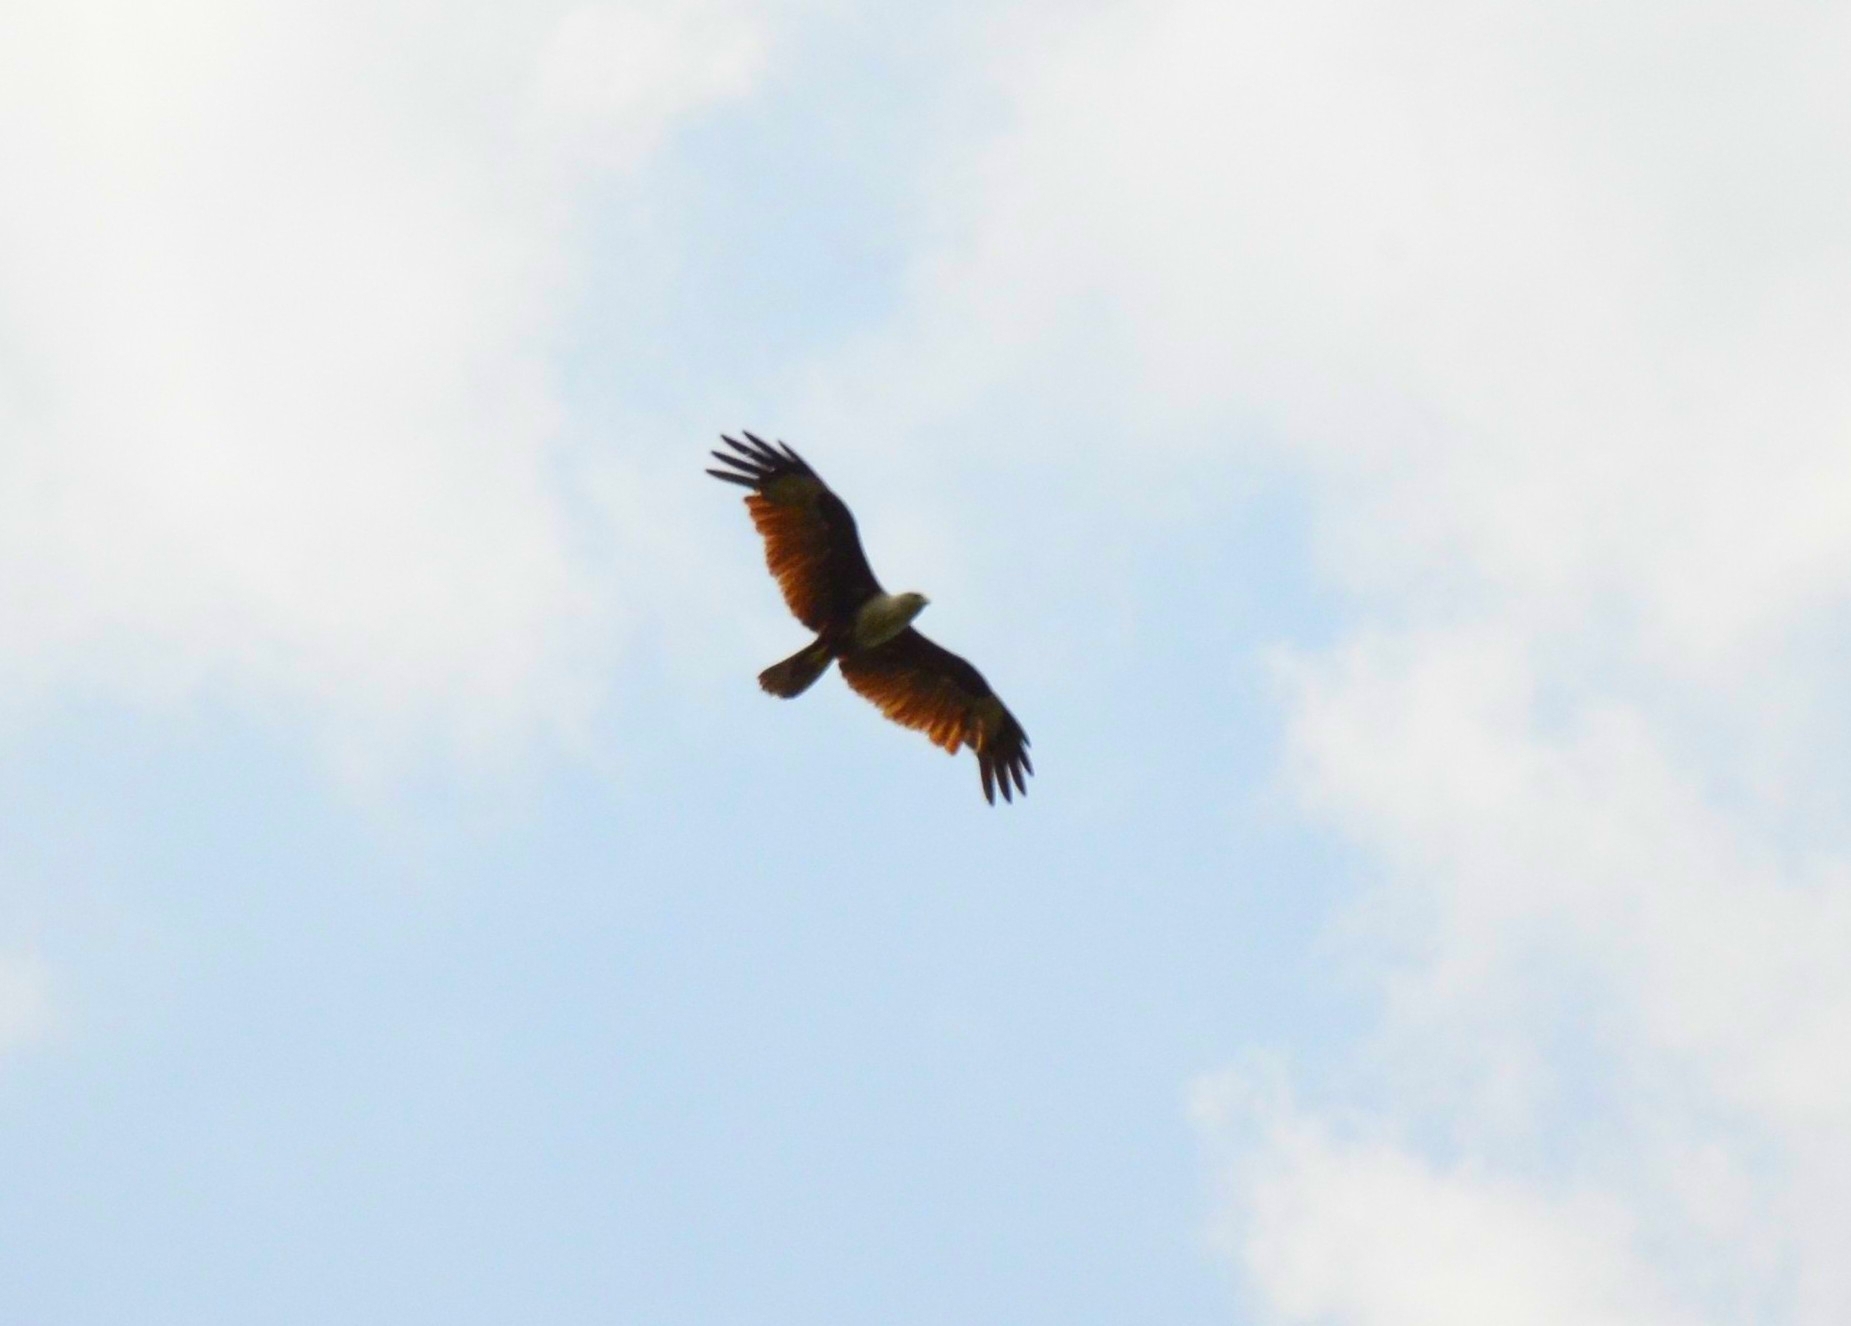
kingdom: Animalia
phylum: Chordata
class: Aves
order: Accipitriformes
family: Accipitridae
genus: Haliastur
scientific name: Haliastur indus
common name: Brahminy kite
